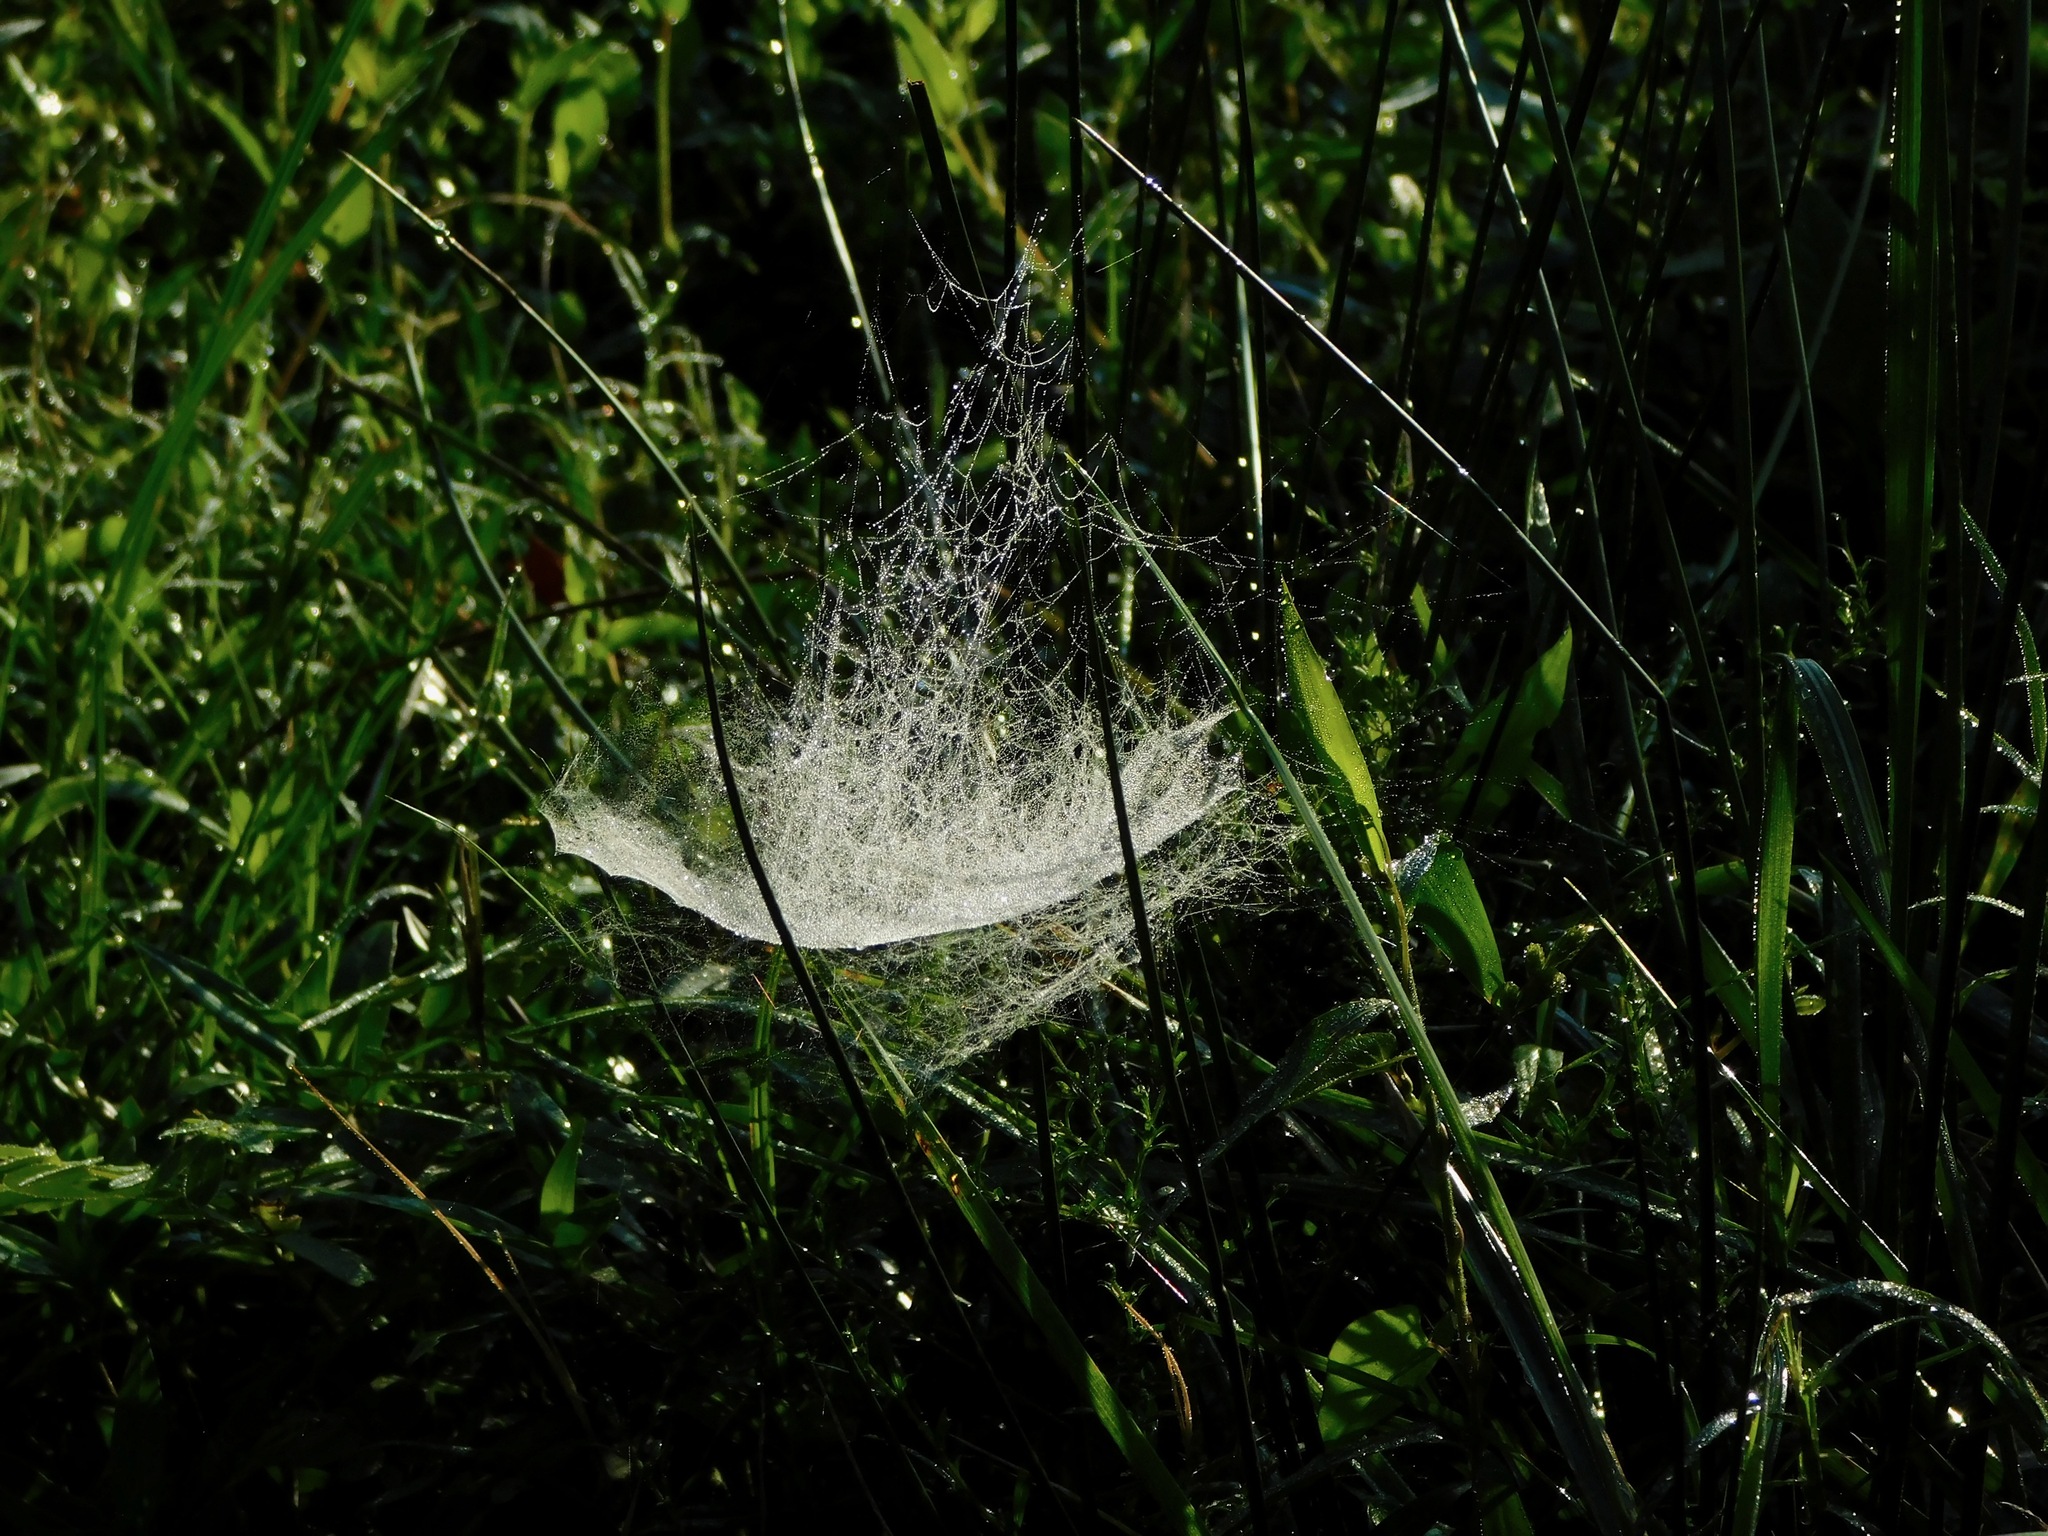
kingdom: Animalia
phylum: Arthropoda
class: Arachnida
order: Araneae
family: Linyphiidae
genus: Frontinella
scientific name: Frontinella pyramitela
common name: Bowl-and-doily spider
